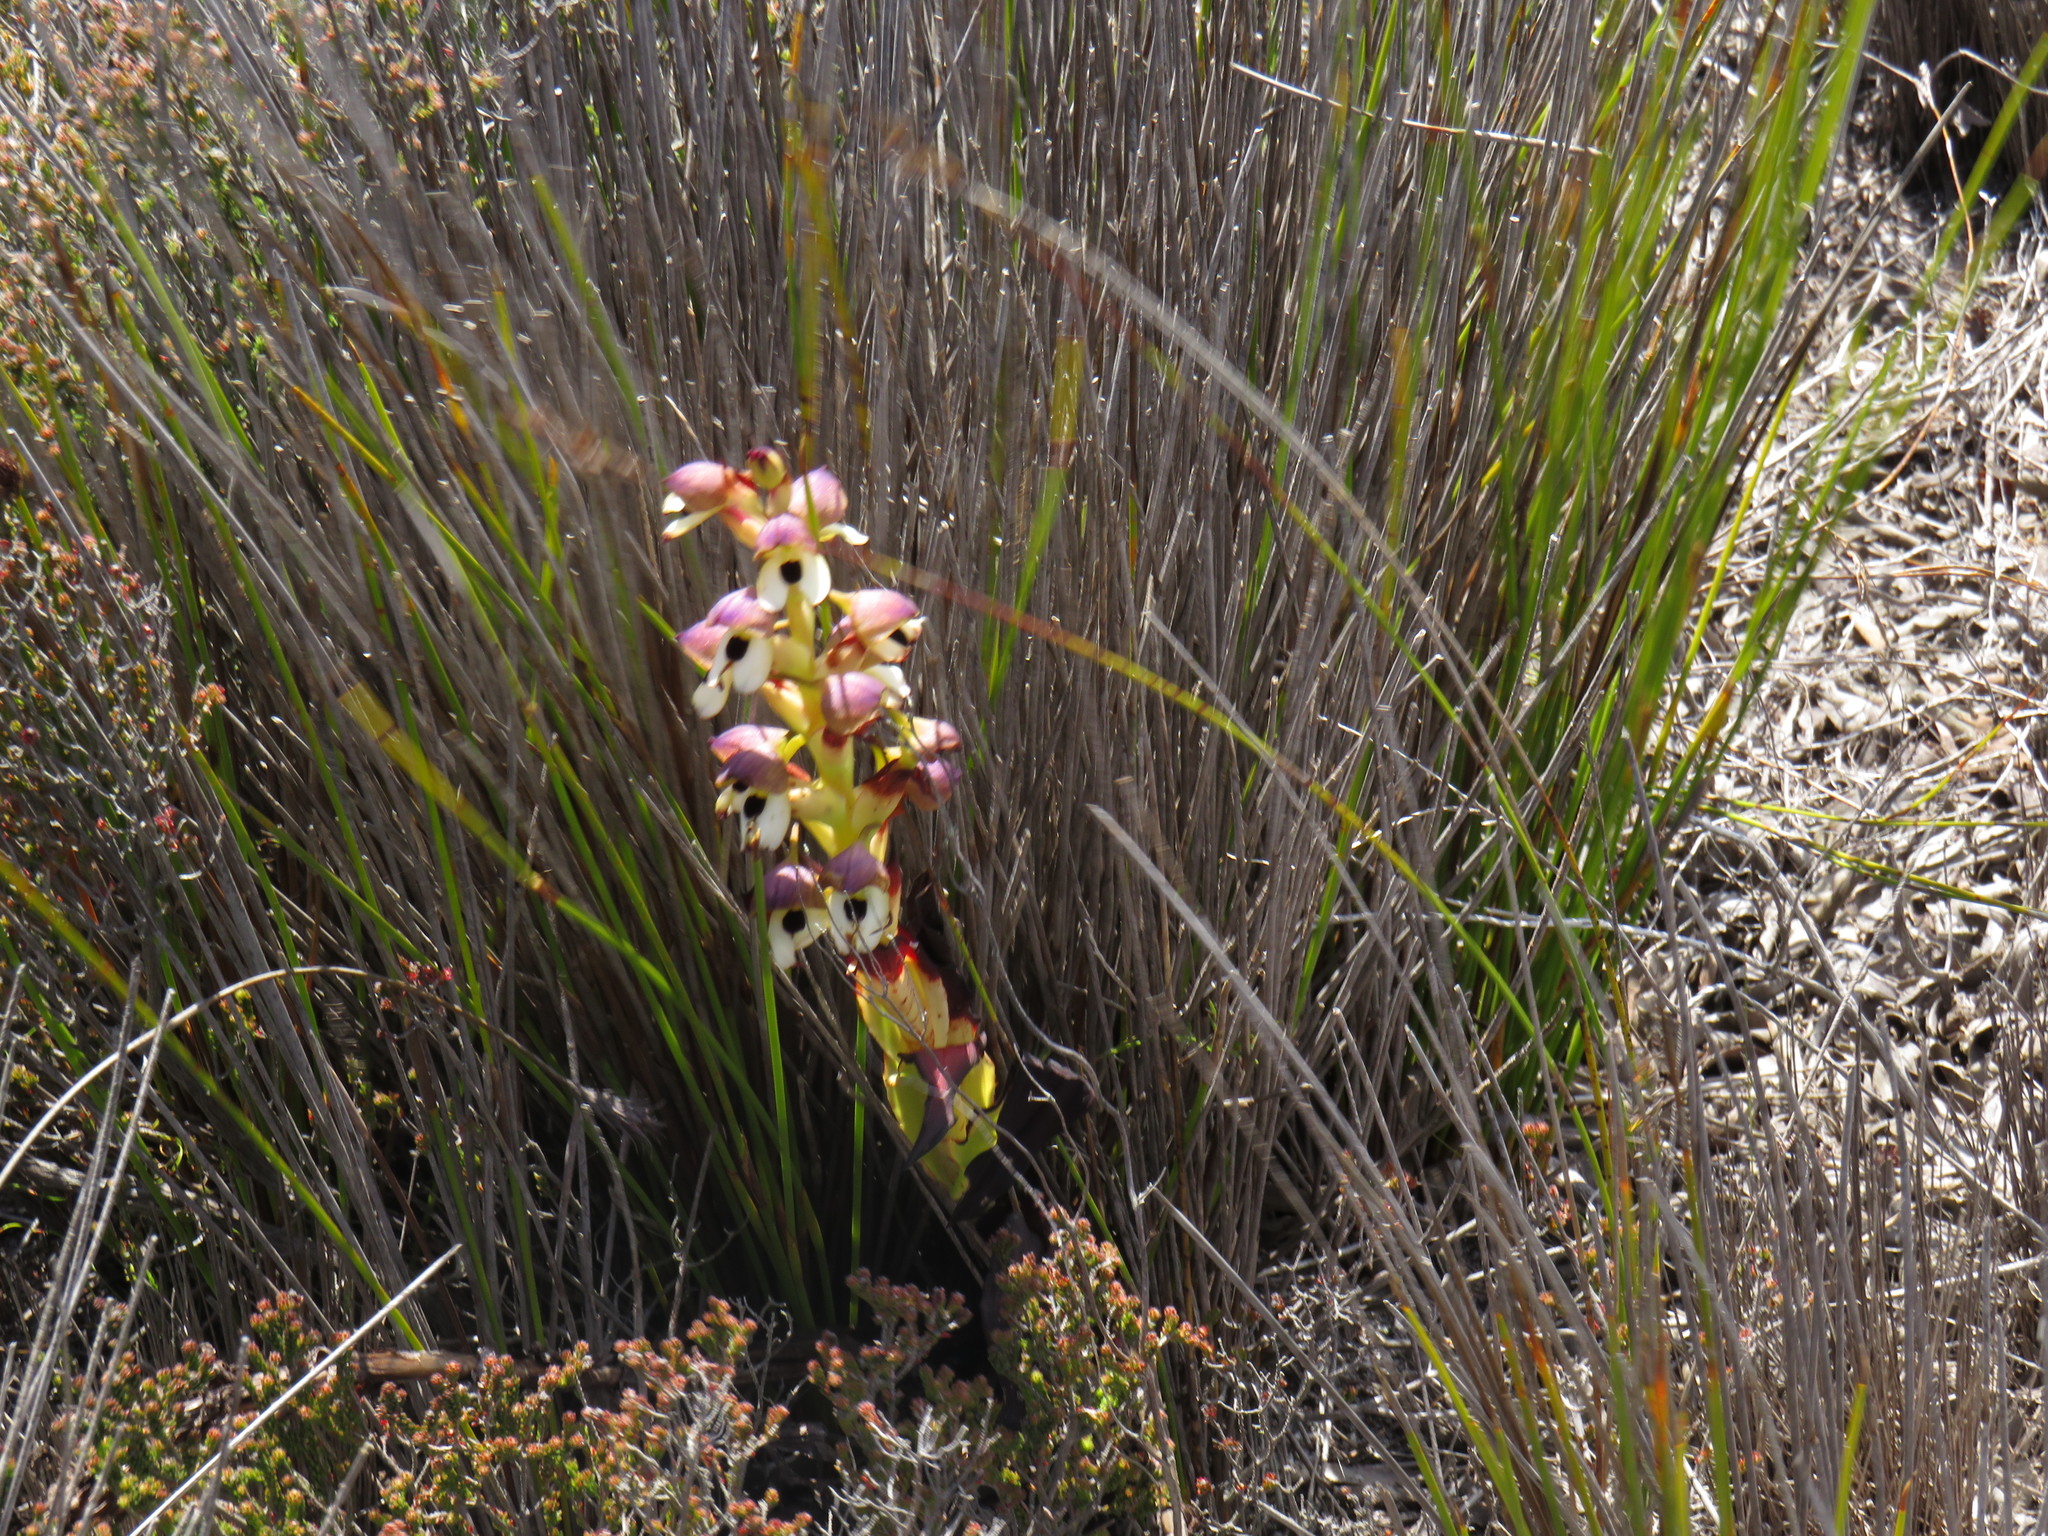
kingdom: Plantae
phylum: Tracheophyta
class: Liliopsida
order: Asparagales
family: Orchidaceae
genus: Disa
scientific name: Disa cornuta
